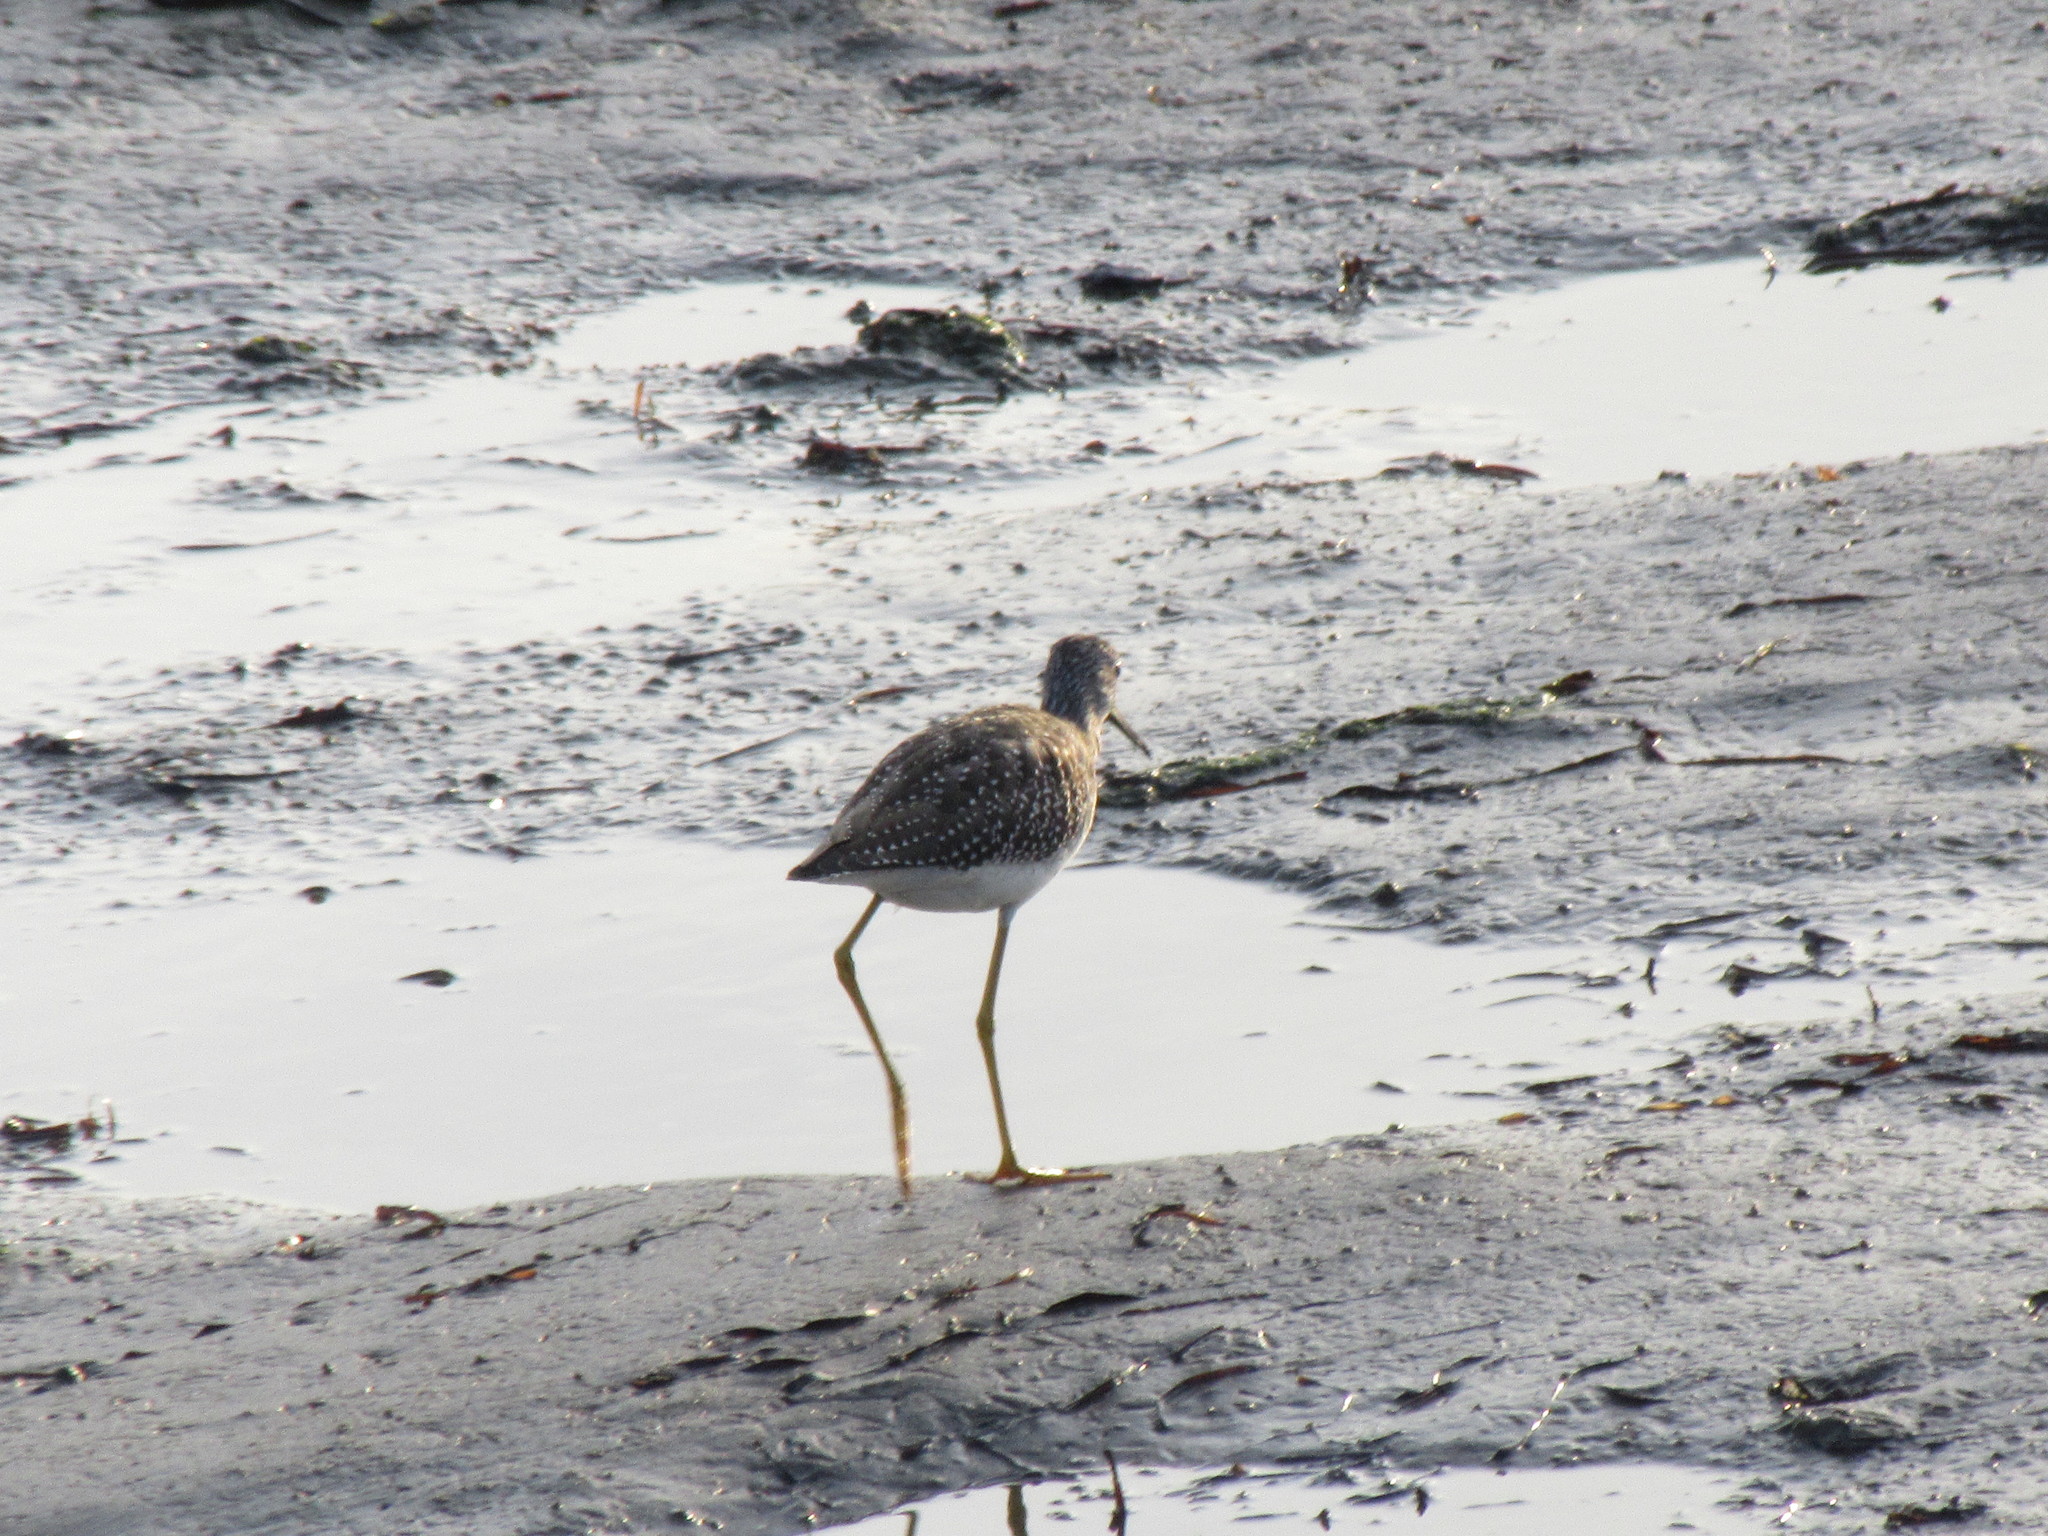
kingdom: Animalia
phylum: Chordata
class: Aves
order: Charadriiformes
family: Scolopacidae
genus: Tringa
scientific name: Tringa melanoleuca
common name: Greater yellowlegs
